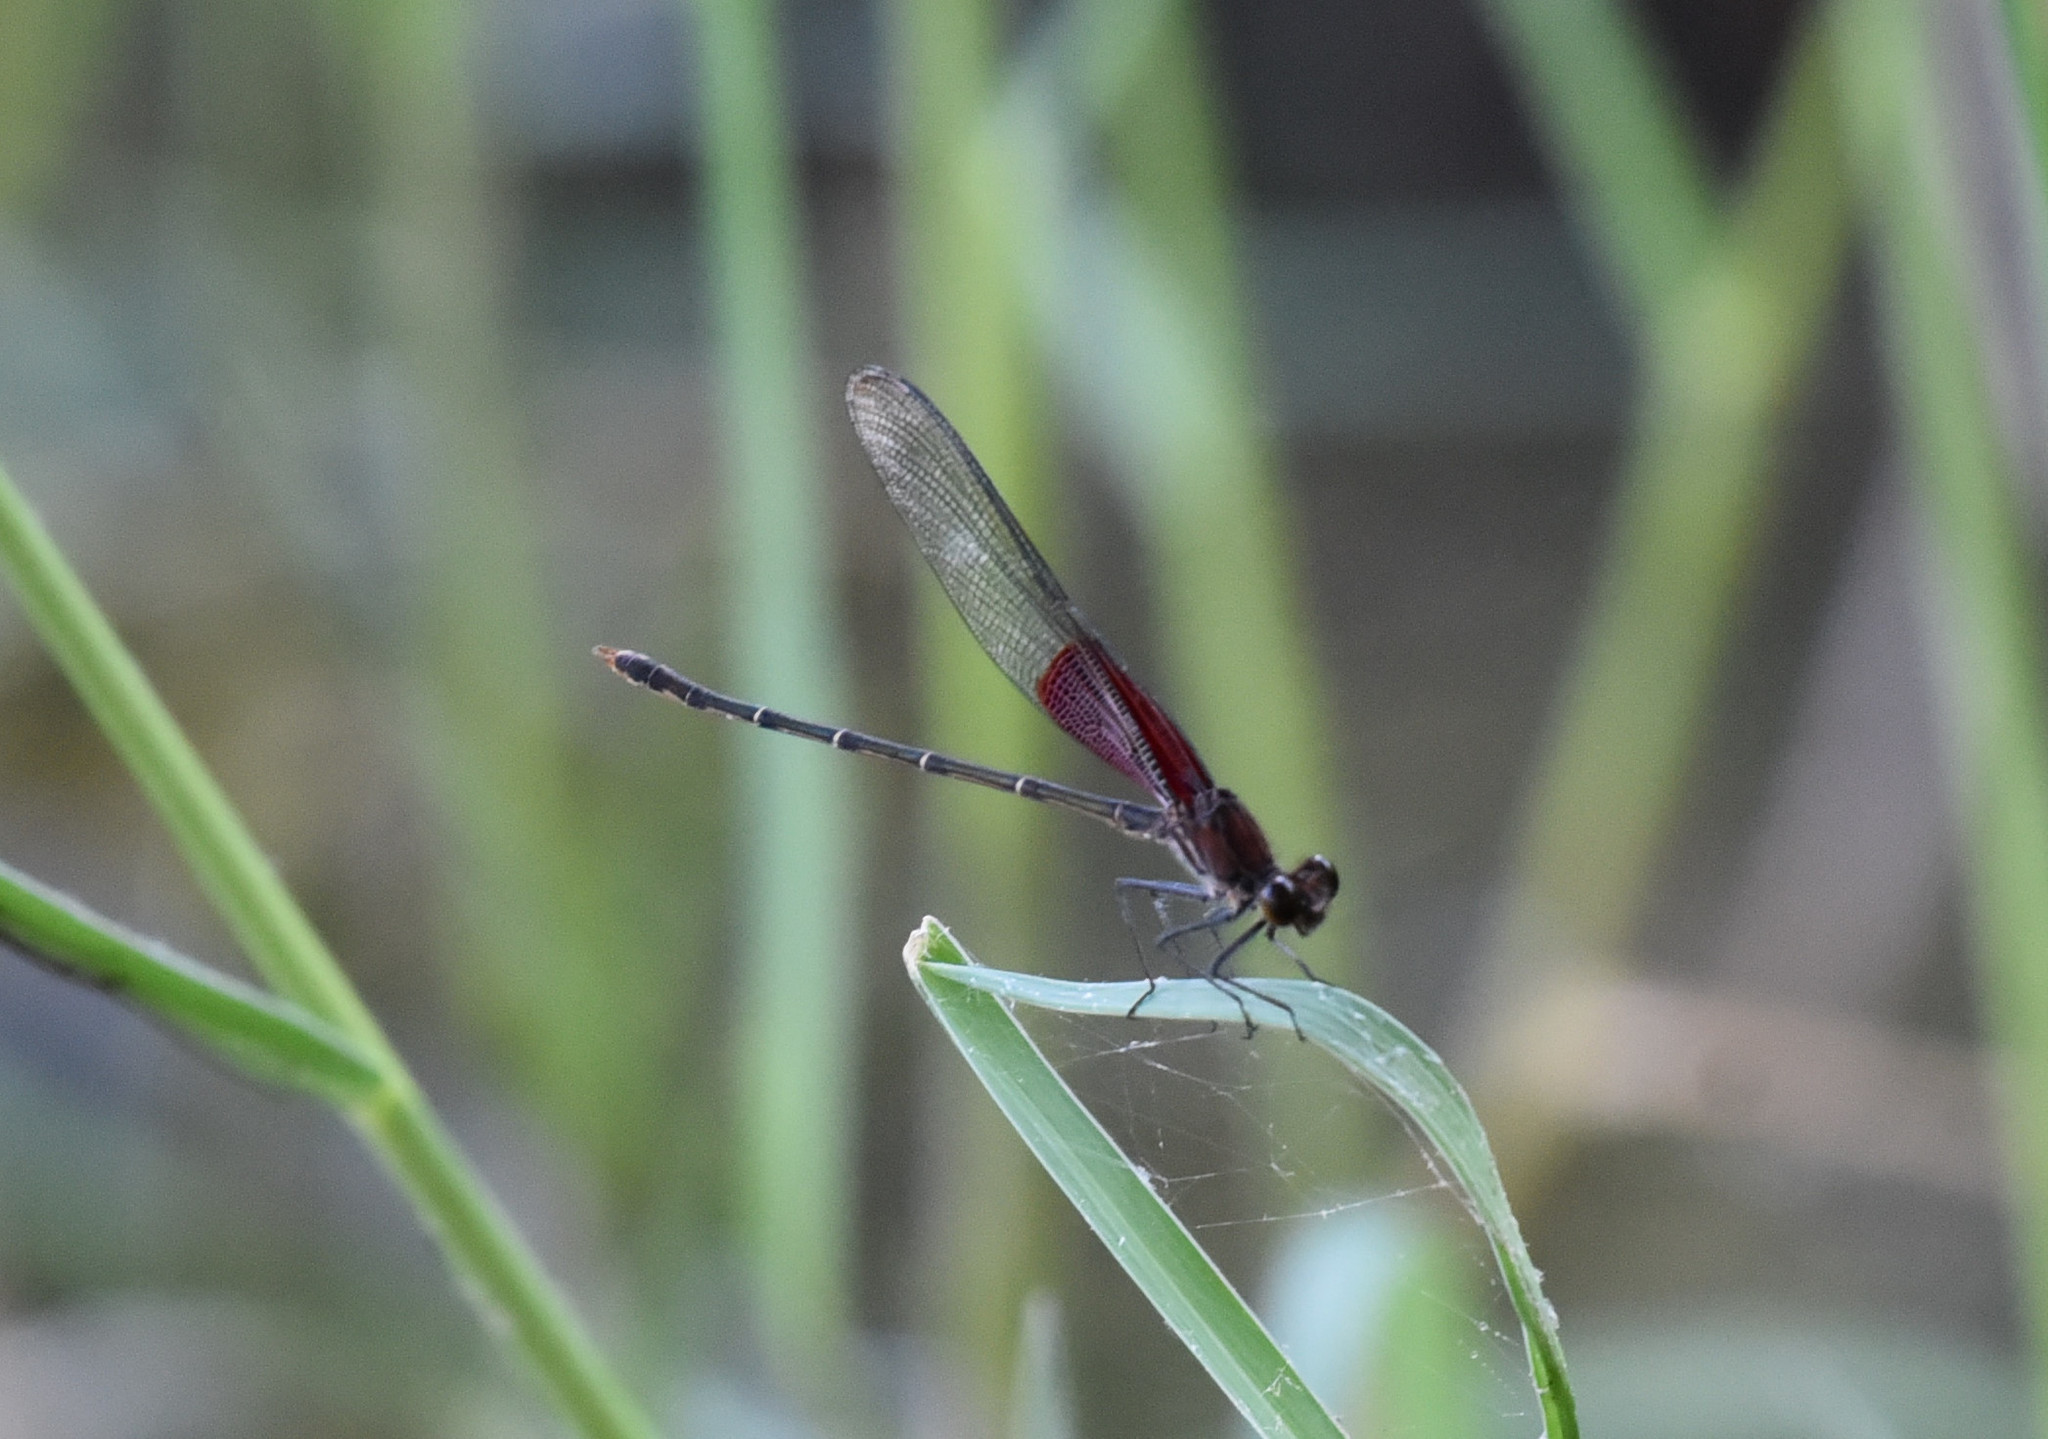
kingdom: Animalia
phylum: Arthropoda
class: Insecta
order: Odonata
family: Calopterygidae
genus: Hetaerina
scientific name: Hetaerina americana
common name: American rubyspot
